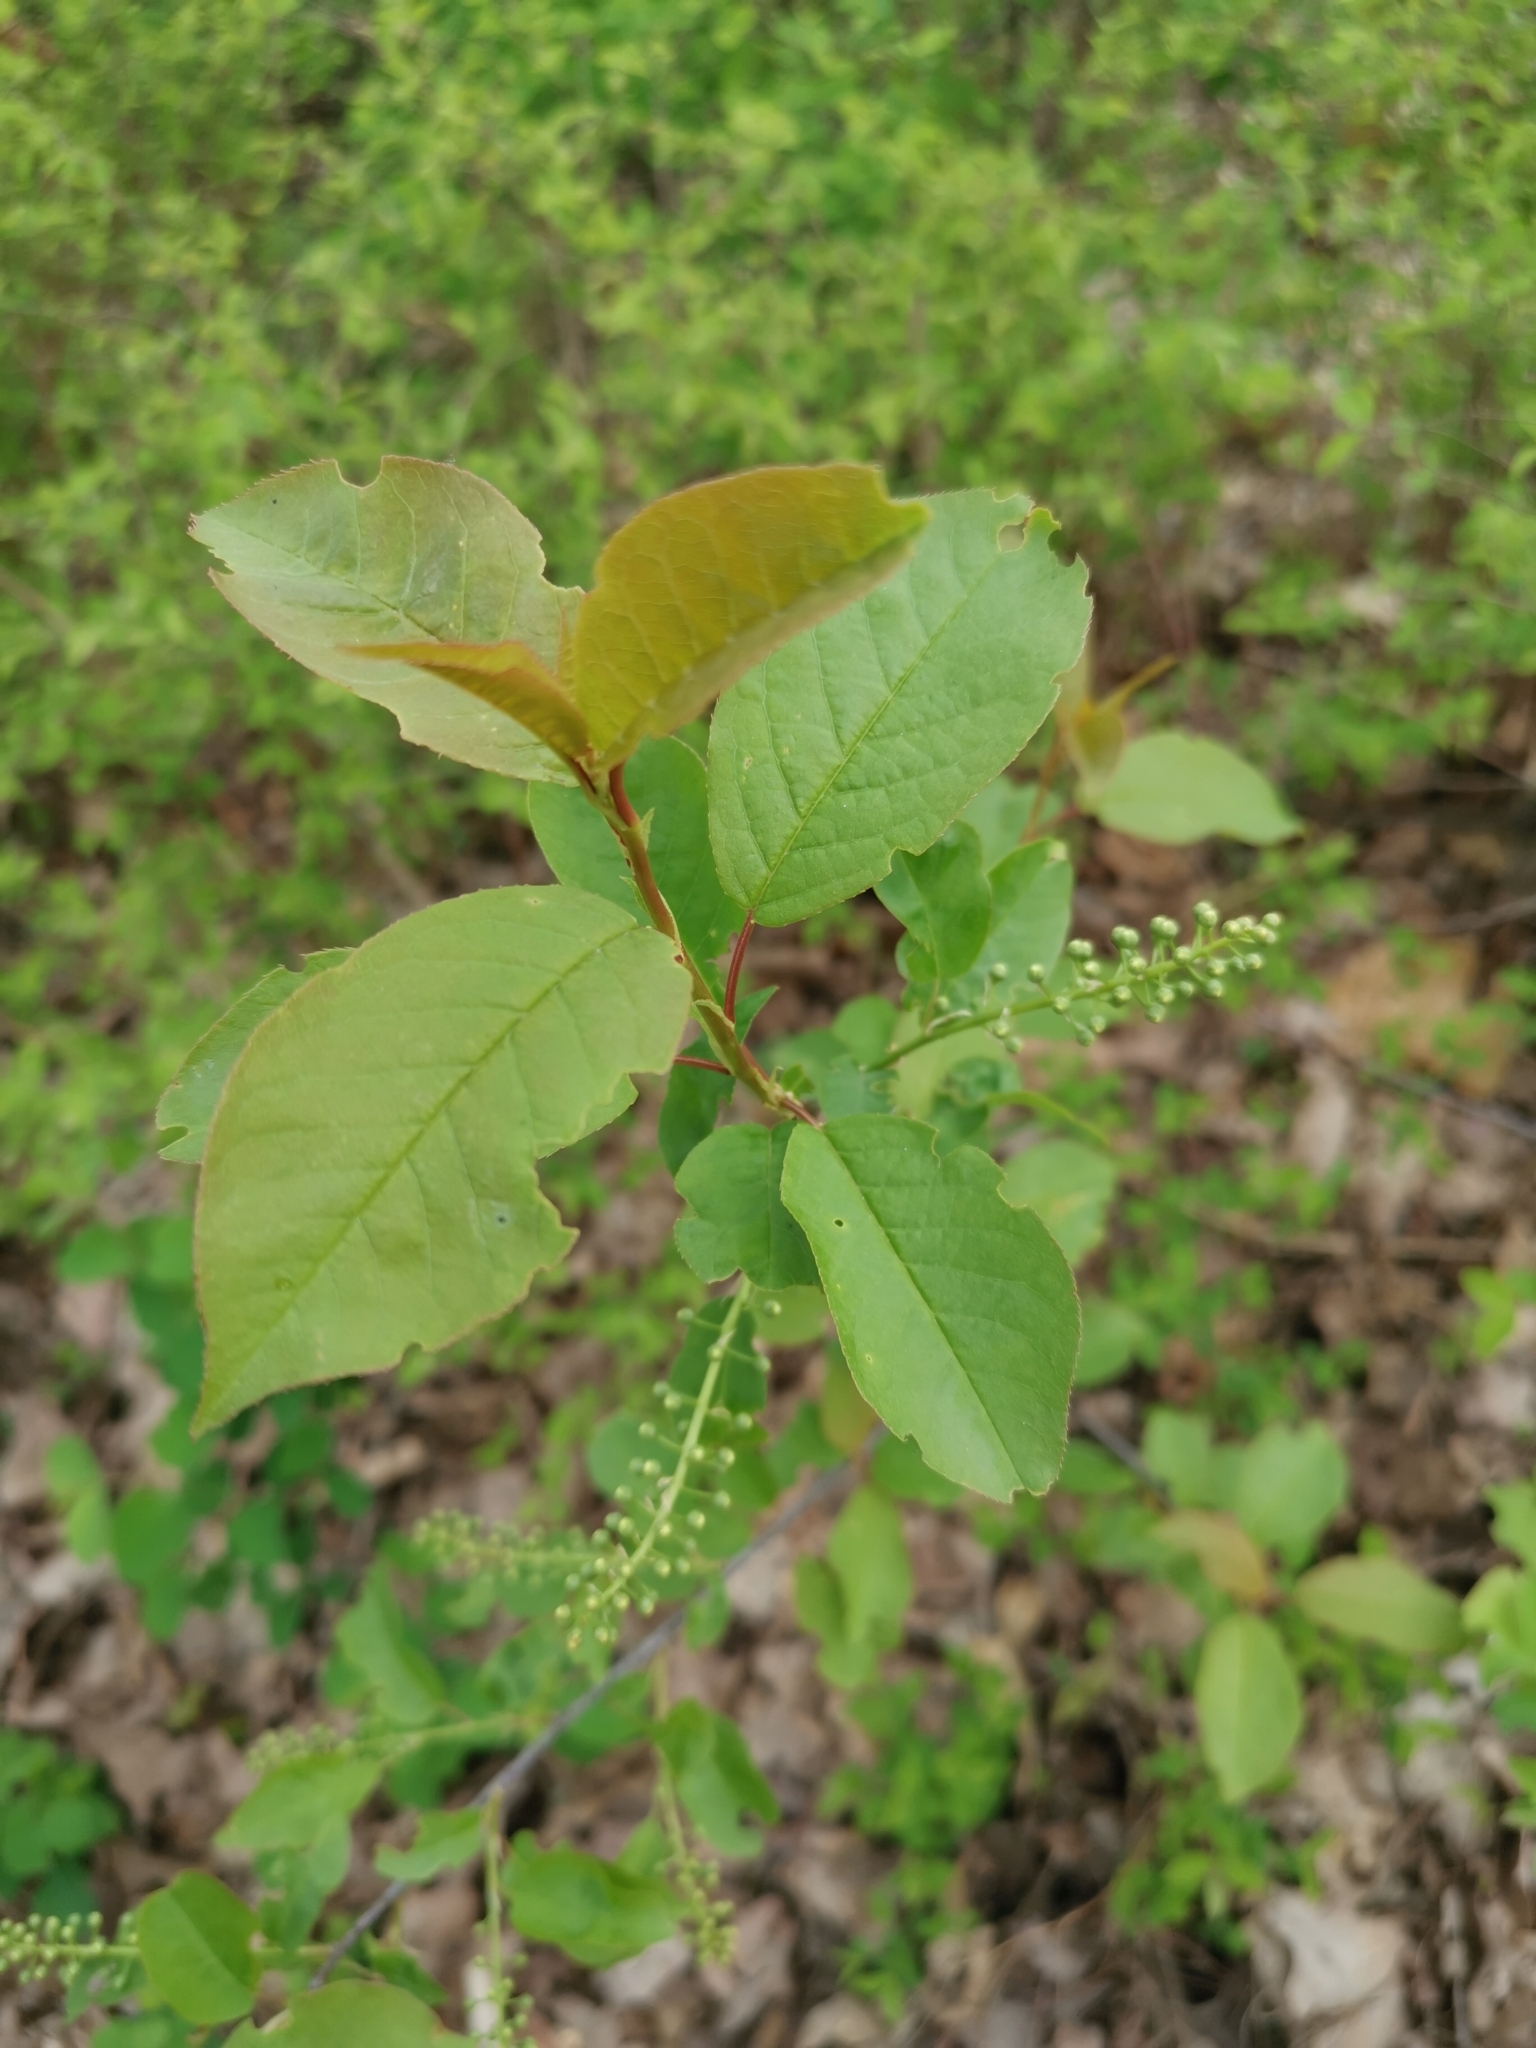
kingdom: Plantae
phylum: Tracheophyta
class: Magnoliopsida
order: Rosales
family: Rosaceae
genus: Prunus
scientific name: Prunus padus
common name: Bird cherry
